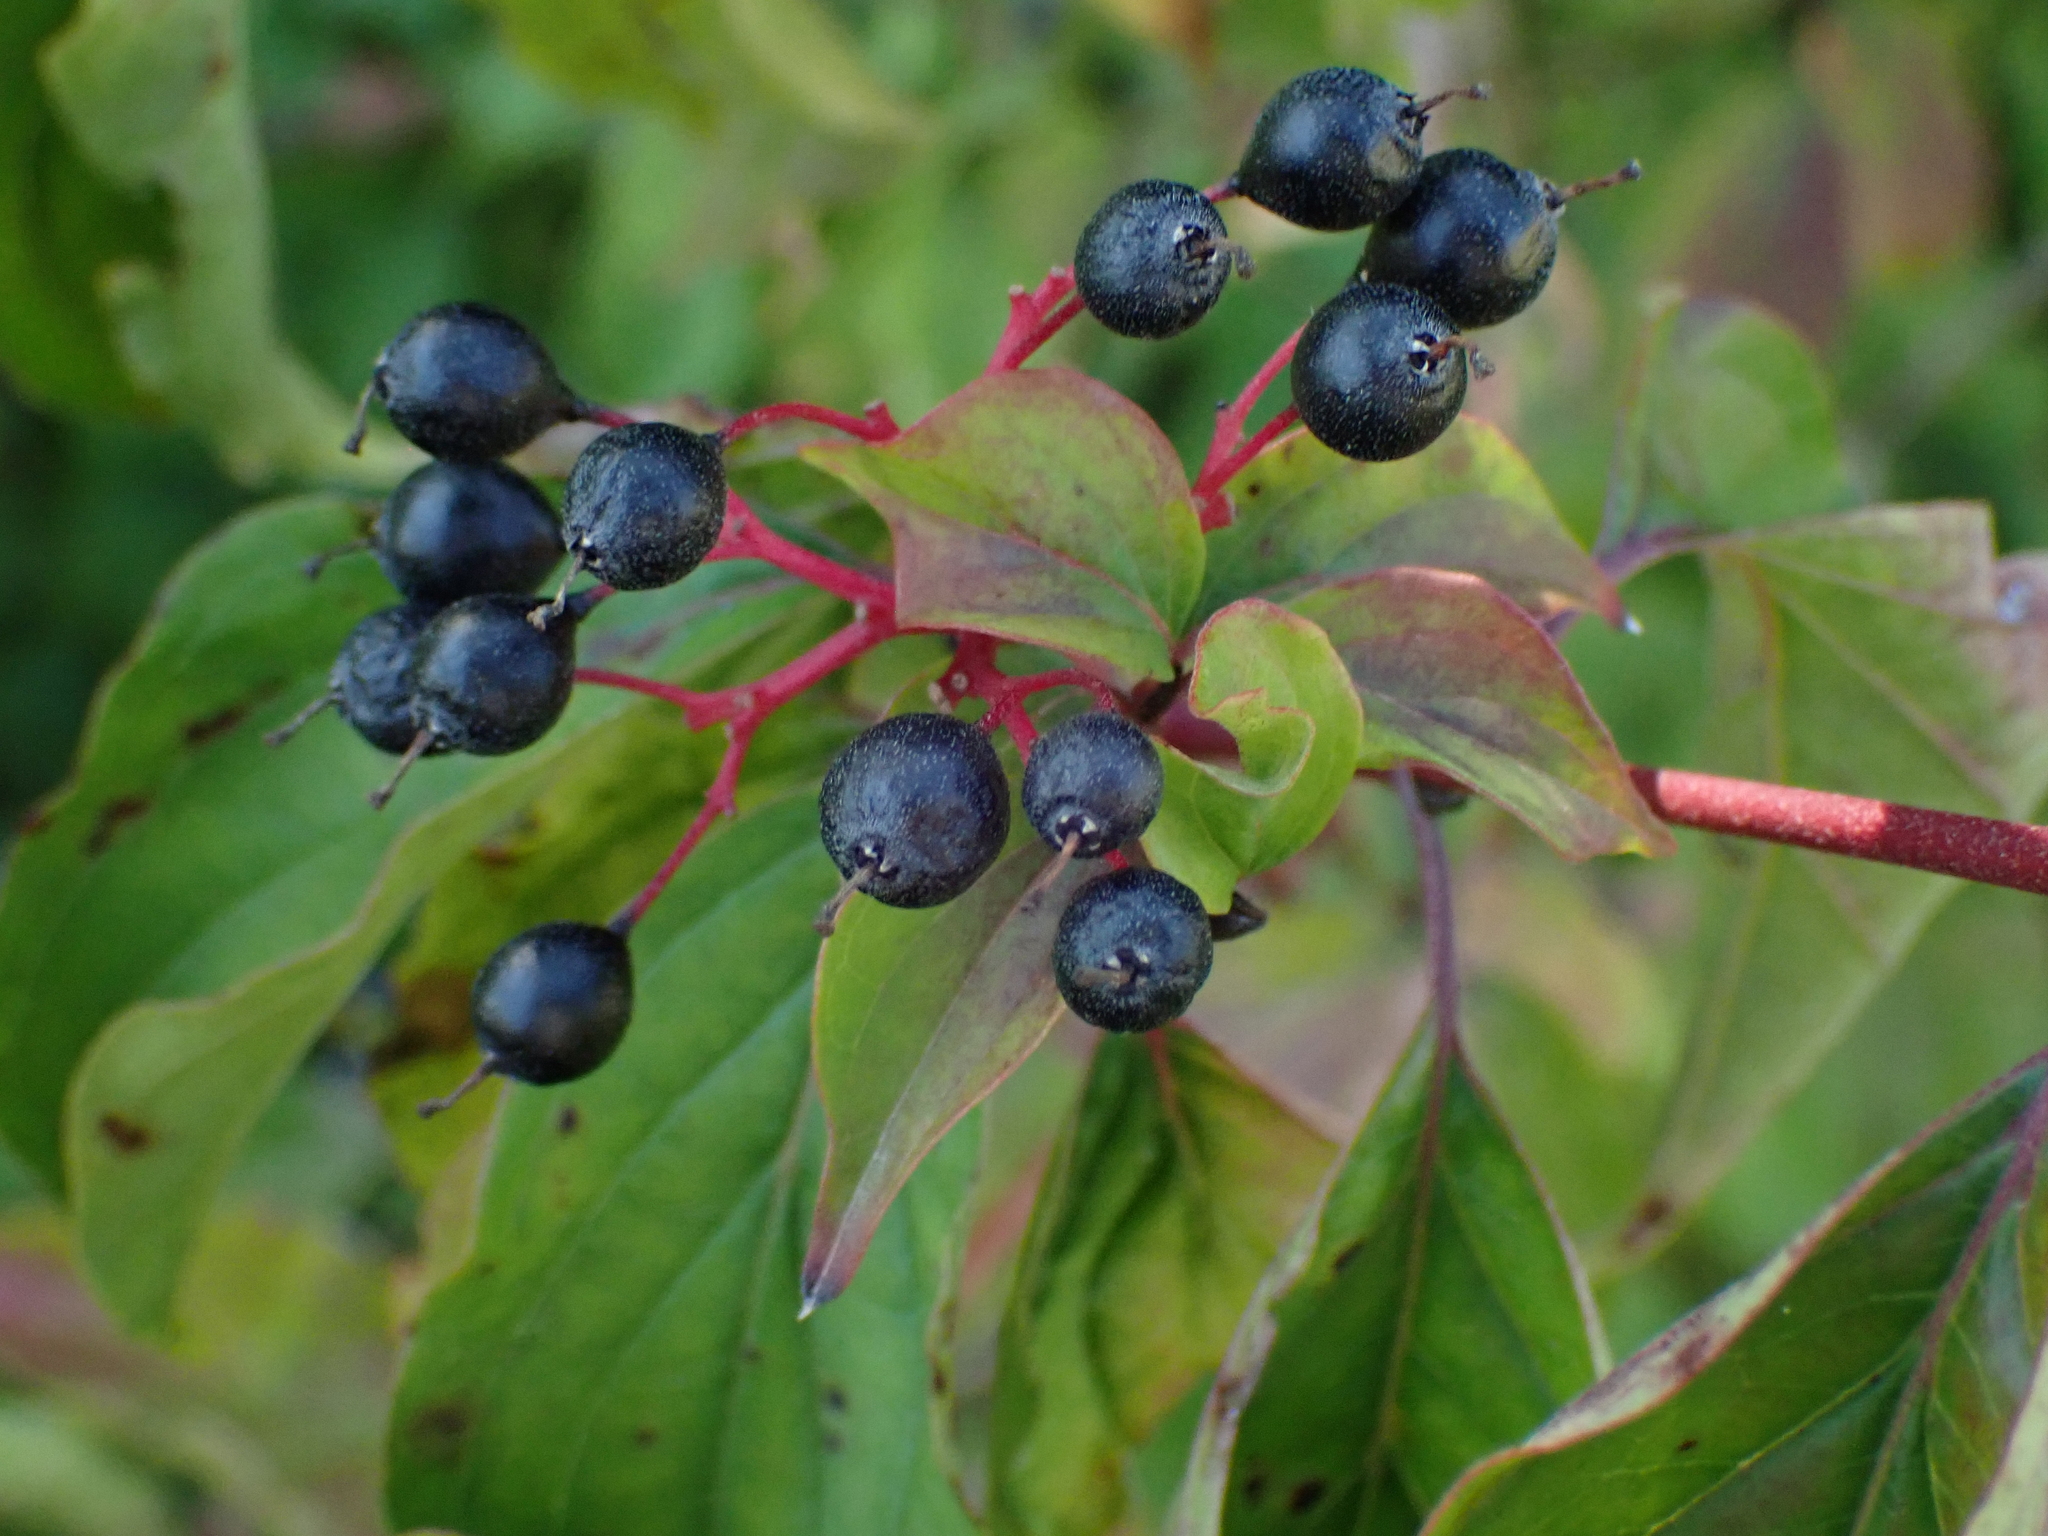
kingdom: Plantae
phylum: Tracheophyta
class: Magnoliopsida
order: Cornales
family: Cornaceae
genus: Cornus
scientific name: Cornus sanguinea
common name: Dogwood
